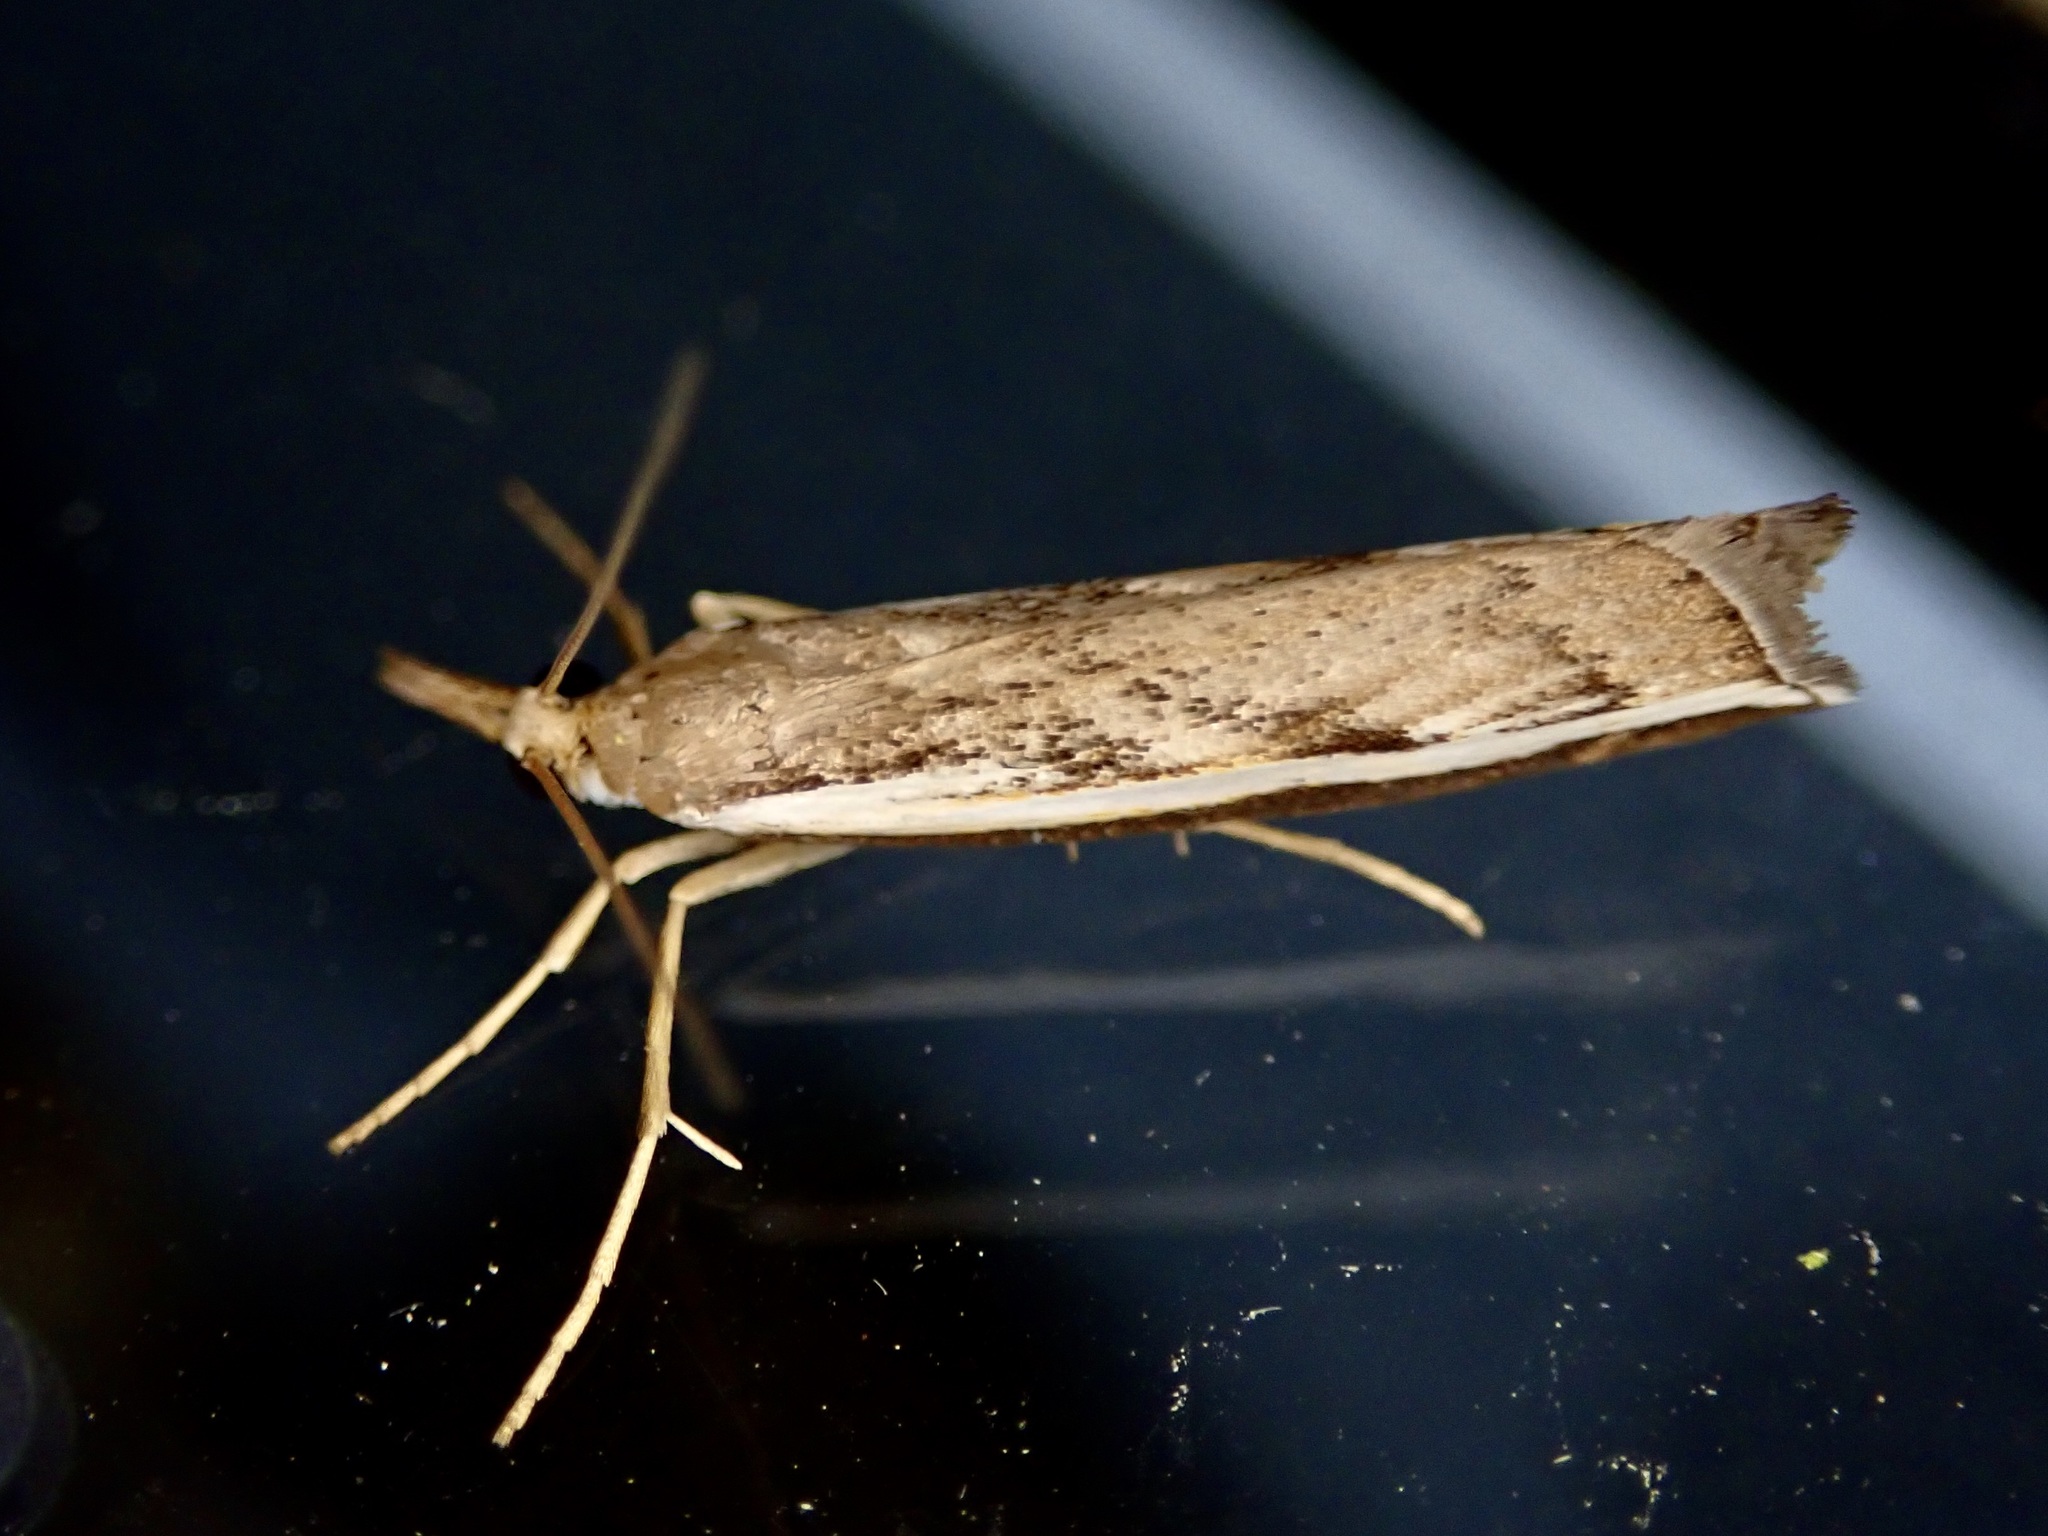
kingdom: Animalia
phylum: Arthropoda
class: Insecta
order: Lepidoptera
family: Crambidae
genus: Orocrambus
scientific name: Orocrambus flexuosellus
